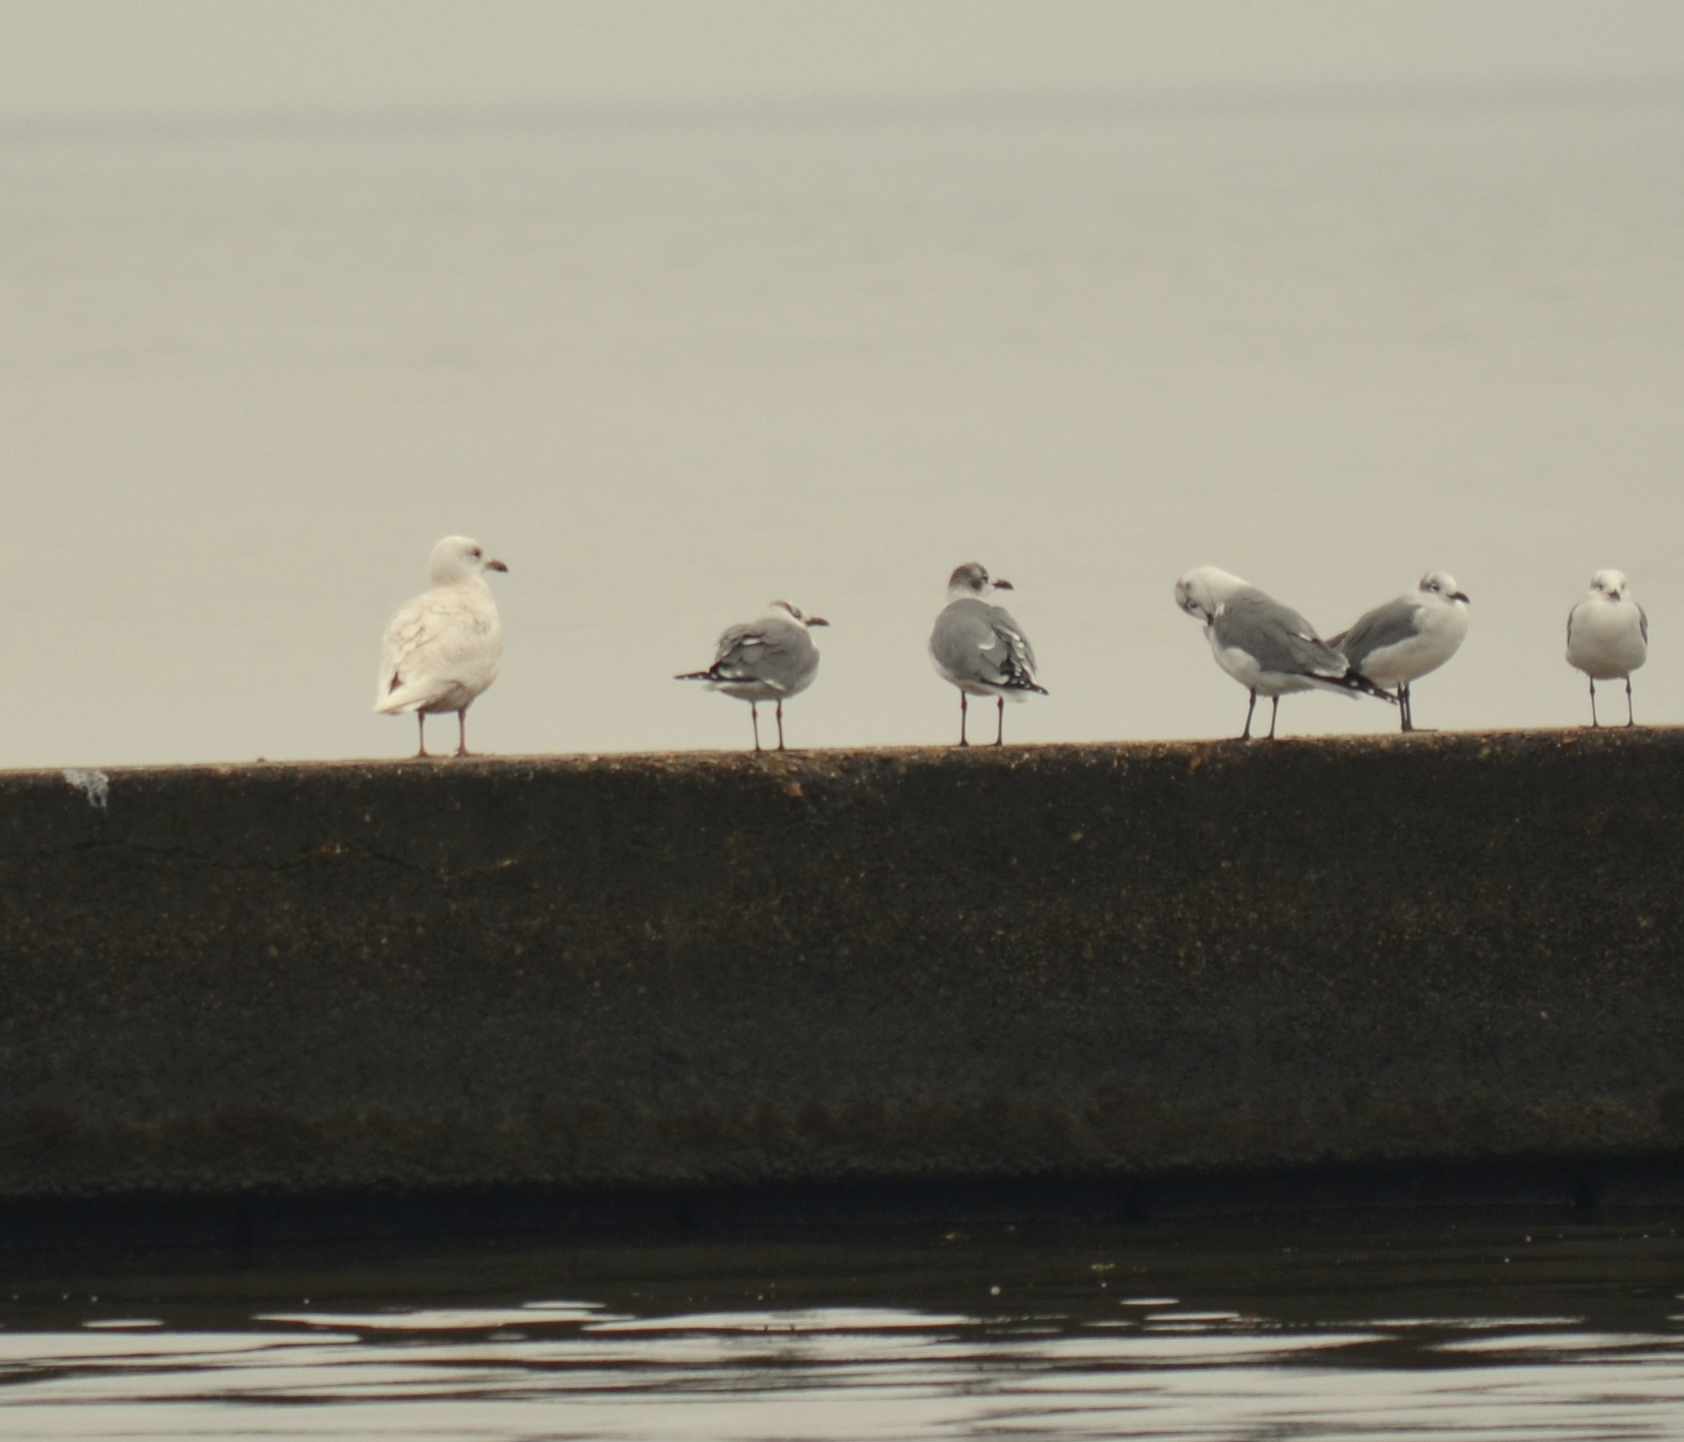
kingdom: Animalia
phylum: Chordata
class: Aves
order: Charadriiformes
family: Laridae
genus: Larus
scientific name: Larus glaucoides
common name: Iceland gull
